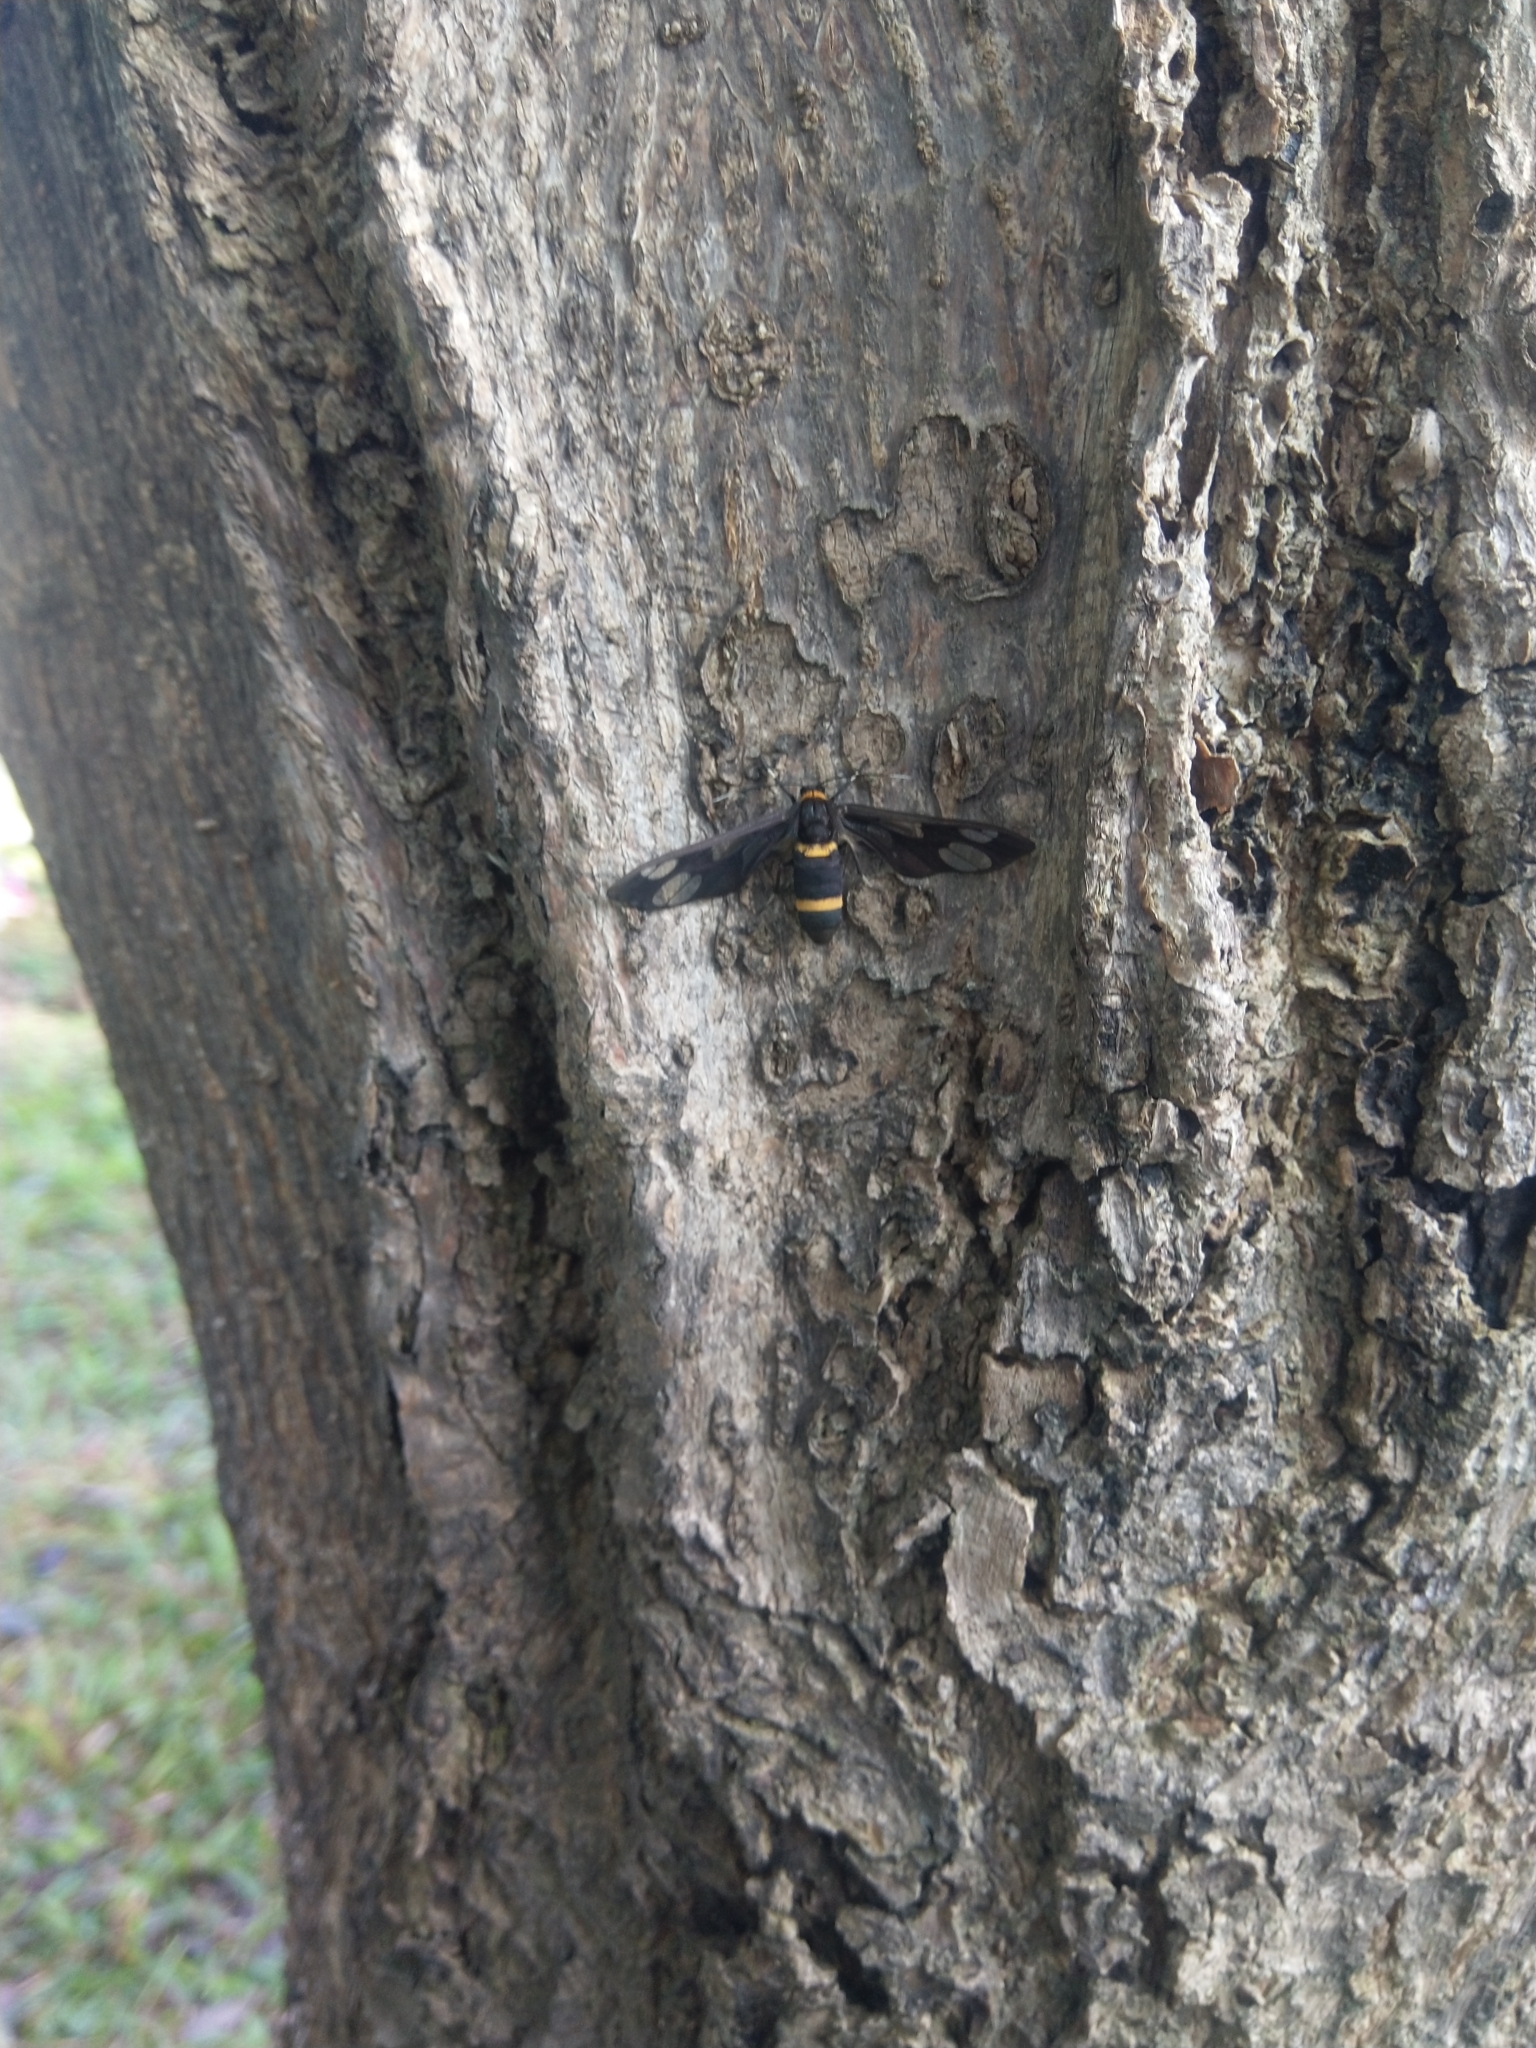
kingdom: Animalia
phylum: Arthropoda
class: Insecta
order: Lepidoptera
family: Erebidae
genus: Syntomoides
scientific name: Syntomoides imaon
